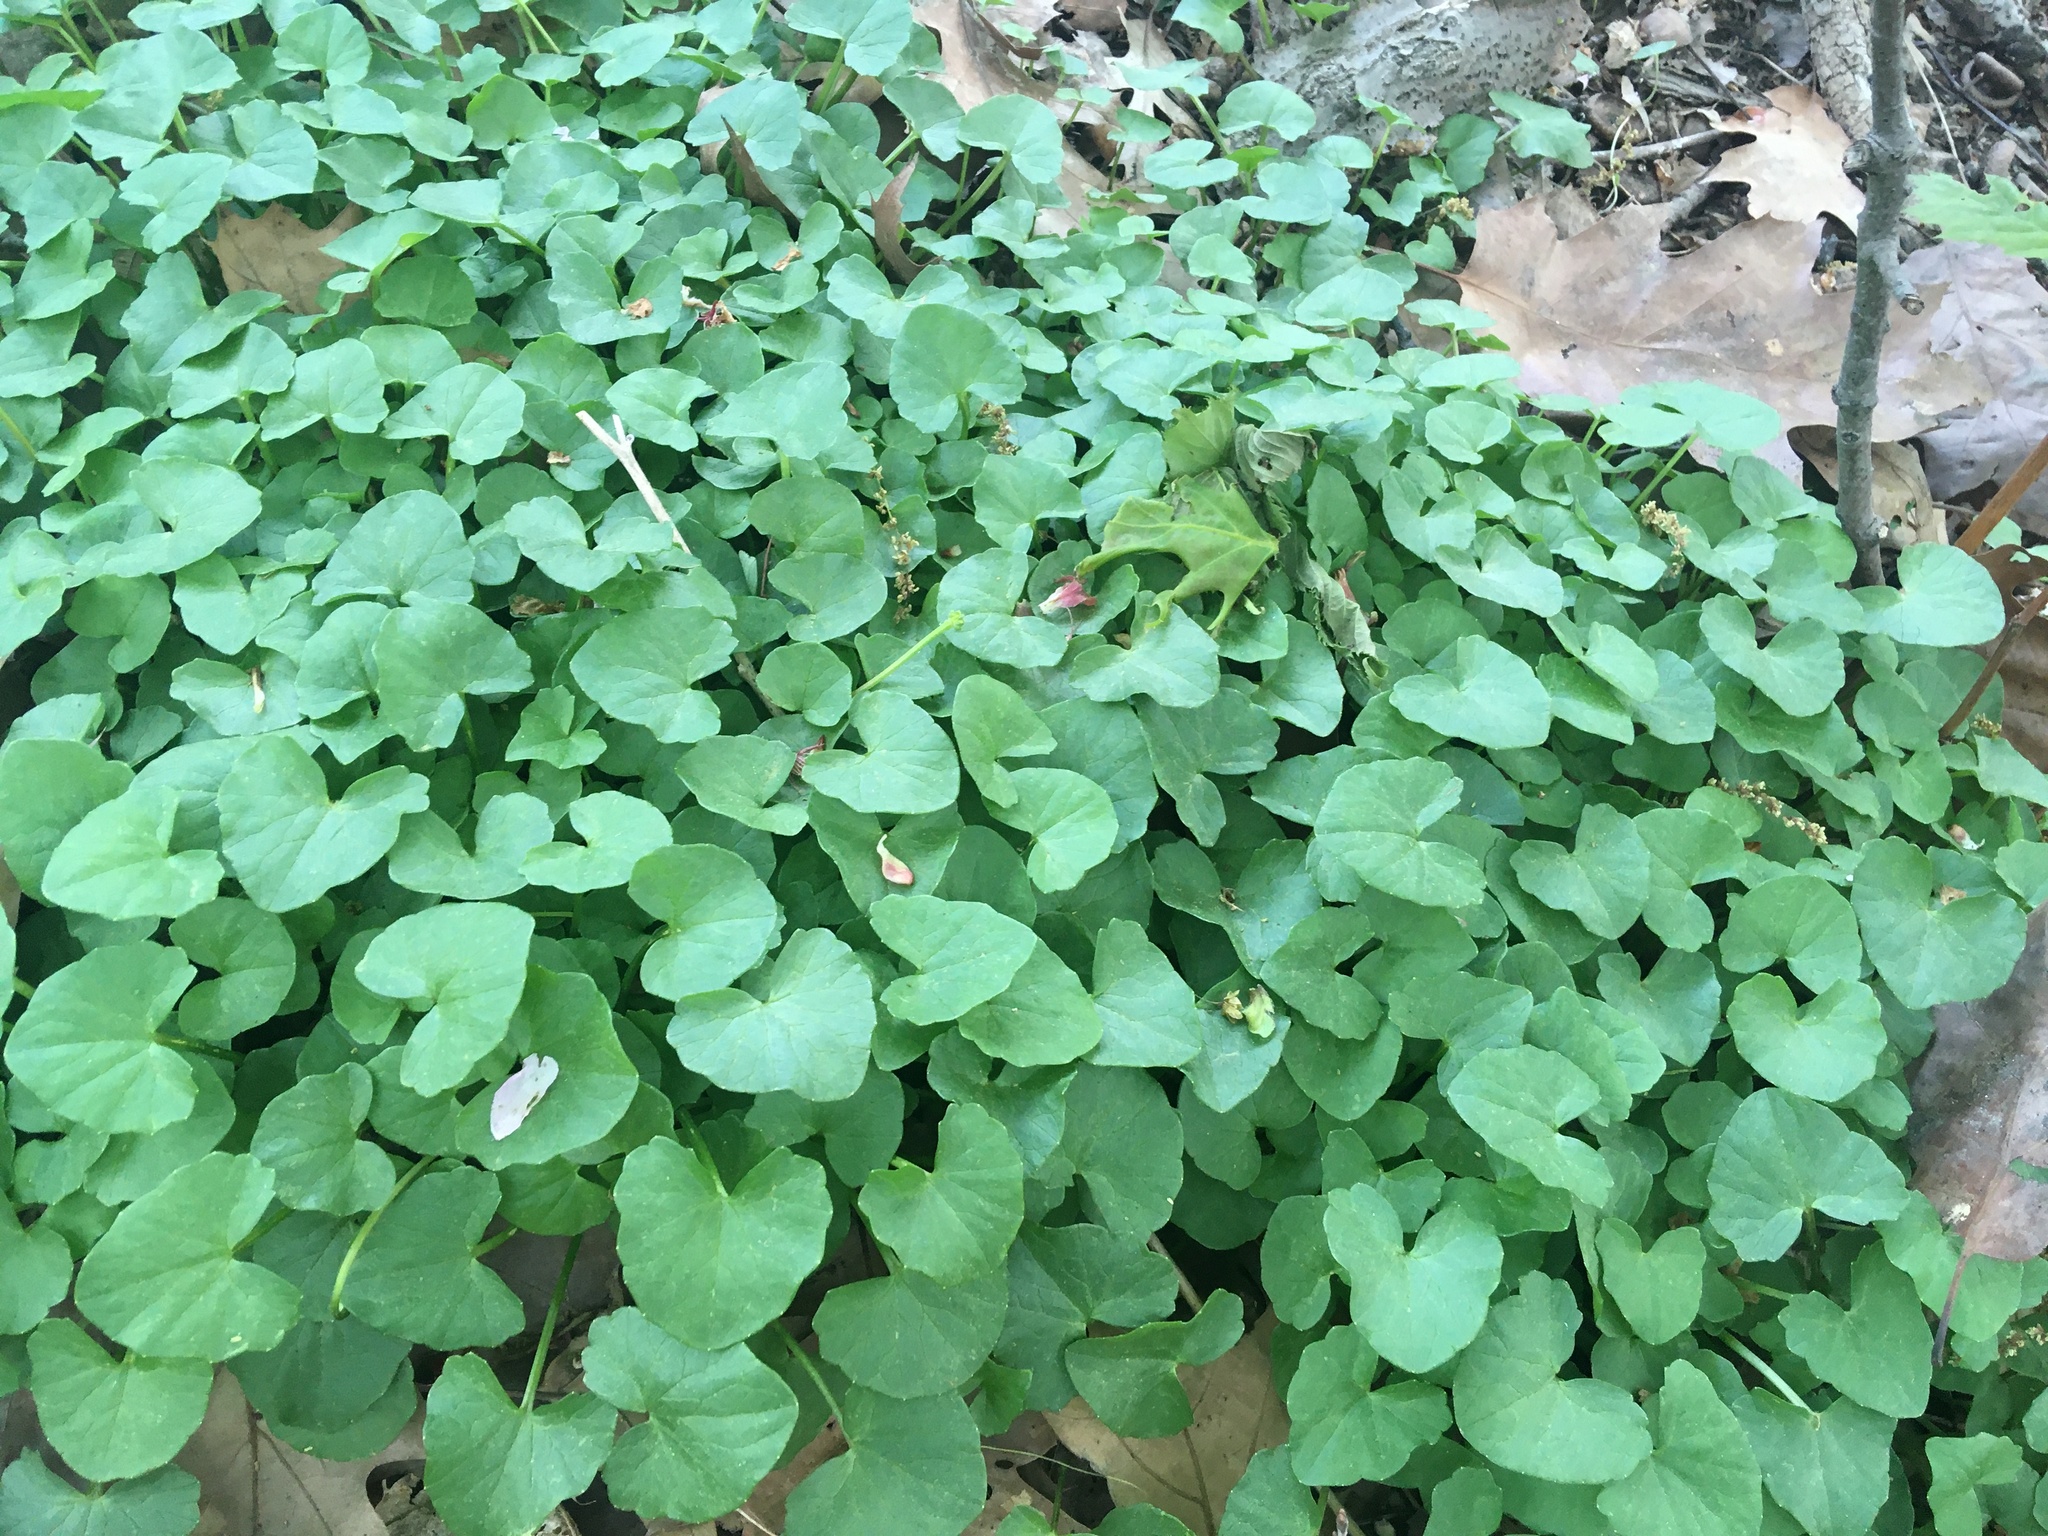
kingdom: Plantae
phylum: Tracheophyta
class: Magnoliopsida
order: Ranunculales
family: Ranunculaceae
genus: Ficaria
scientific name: Ficaria verna
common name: Lesser celandine
